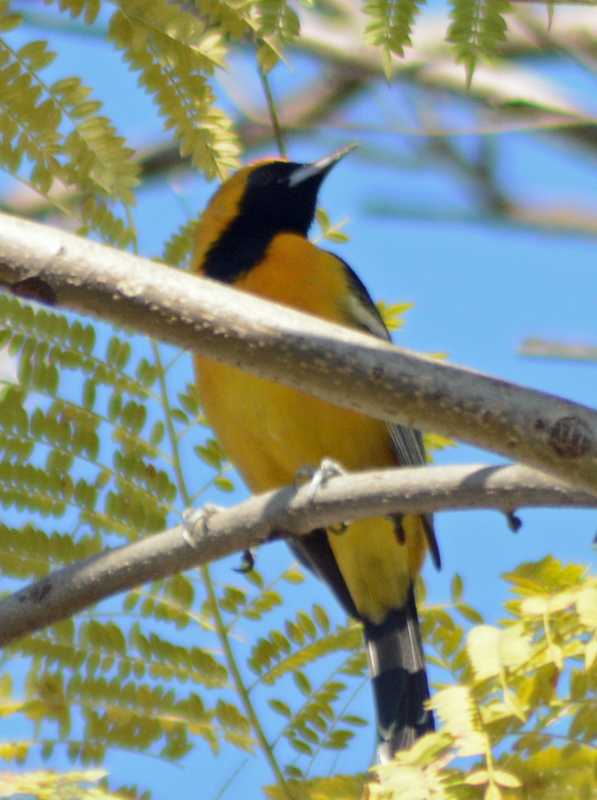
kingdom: Animalia
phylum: Chordata
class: Aves
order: Passeriformes
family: Icteridae
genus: Icterus
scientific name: Icterus cucullatus
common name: Hooded oriole
